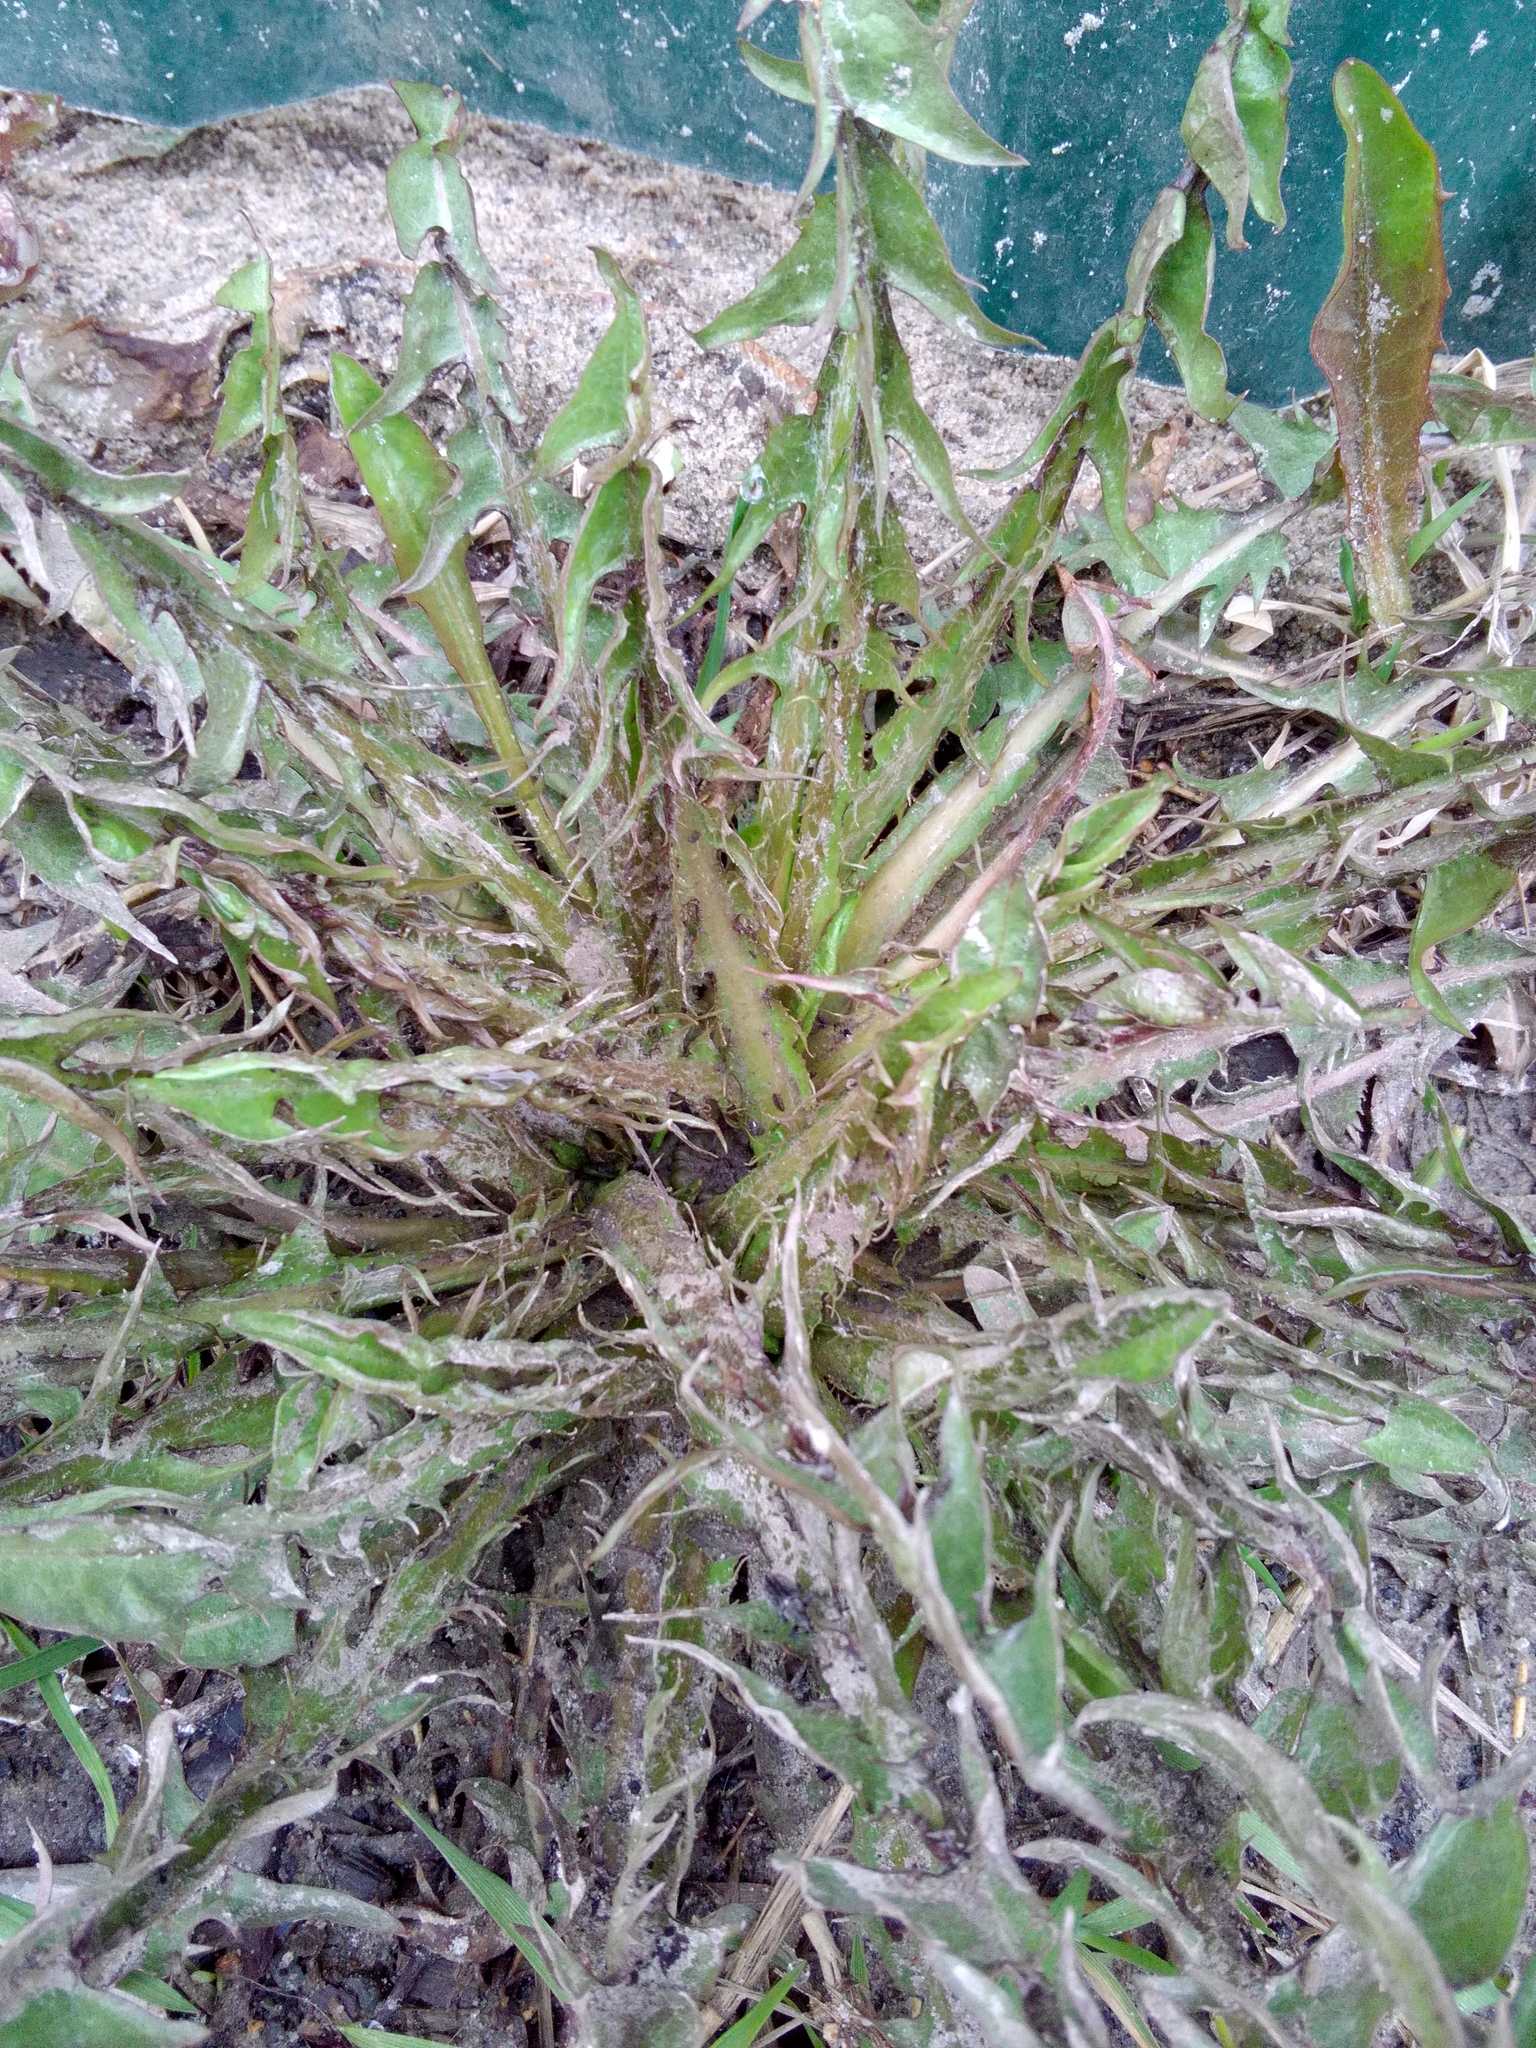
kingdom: Plantae
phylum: Tracheophyta
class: Magnoliopsida
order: Asterales
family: Asteraceae
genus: Taraxacum
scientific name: Taraxacum officinale
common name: Common dandelion
